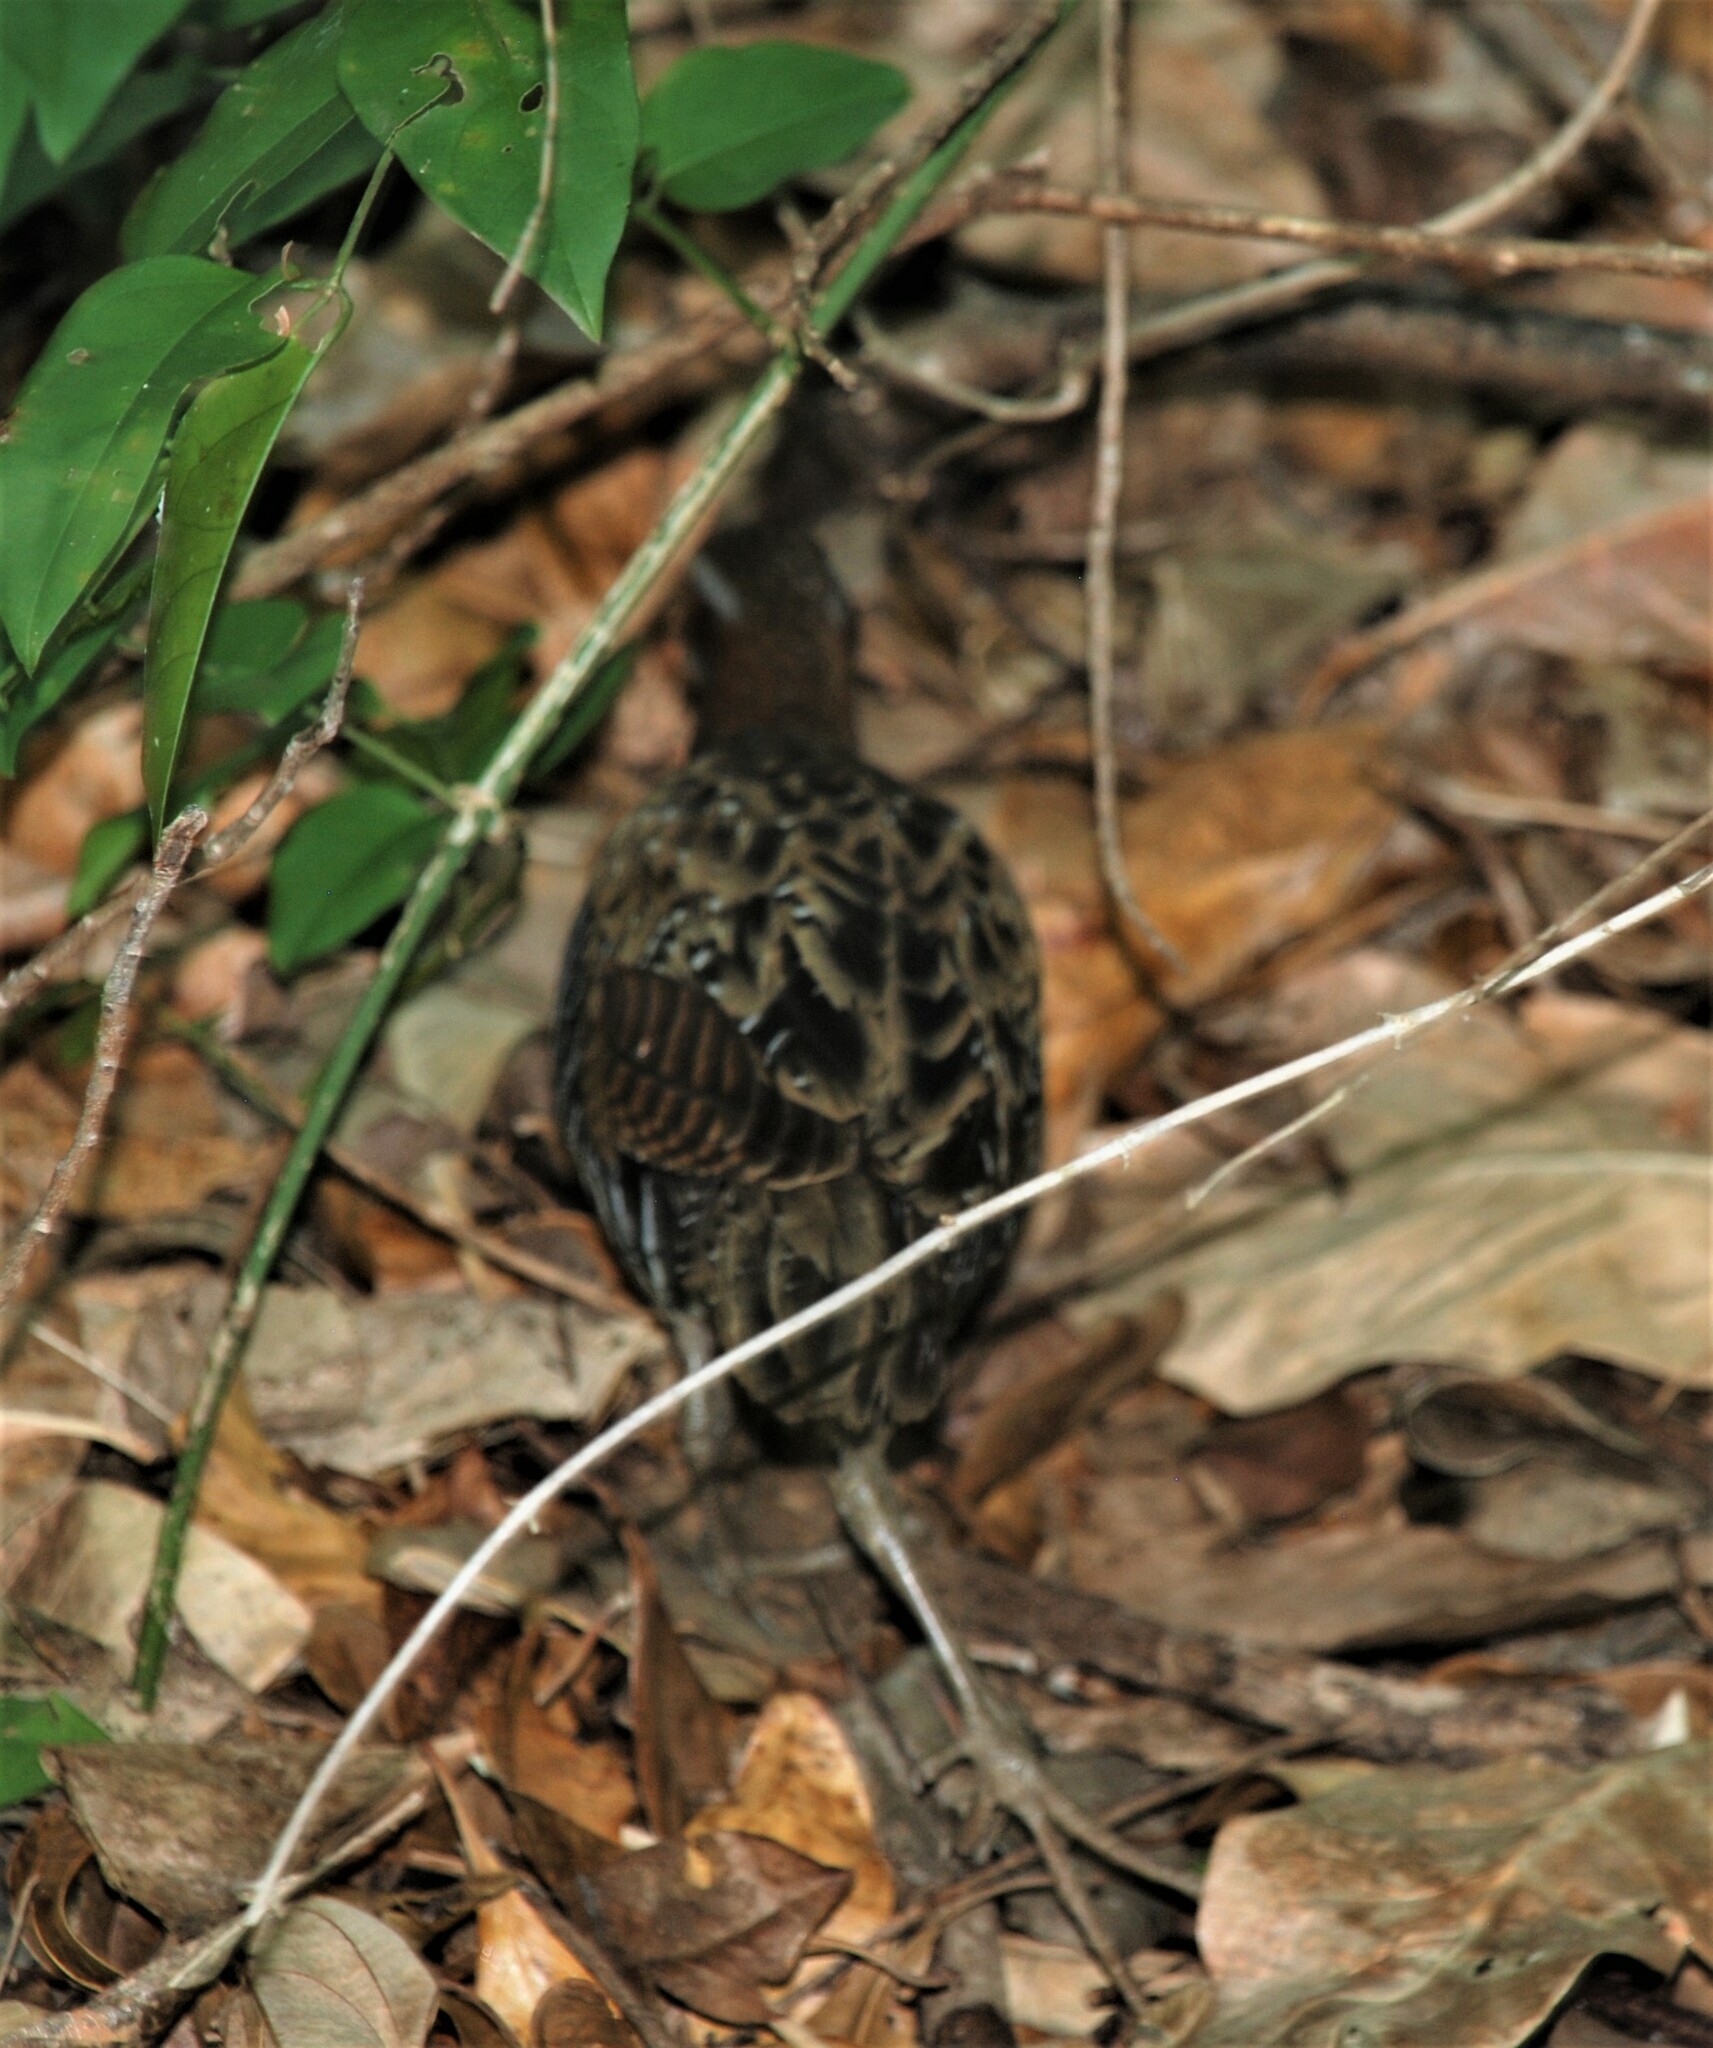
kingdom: Animalia
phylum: Chordata
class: Aves
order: Gruiformes
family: Rallidae
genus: Gallirallus
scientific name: Gallirallus philippensis
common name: Buff-banded rail
